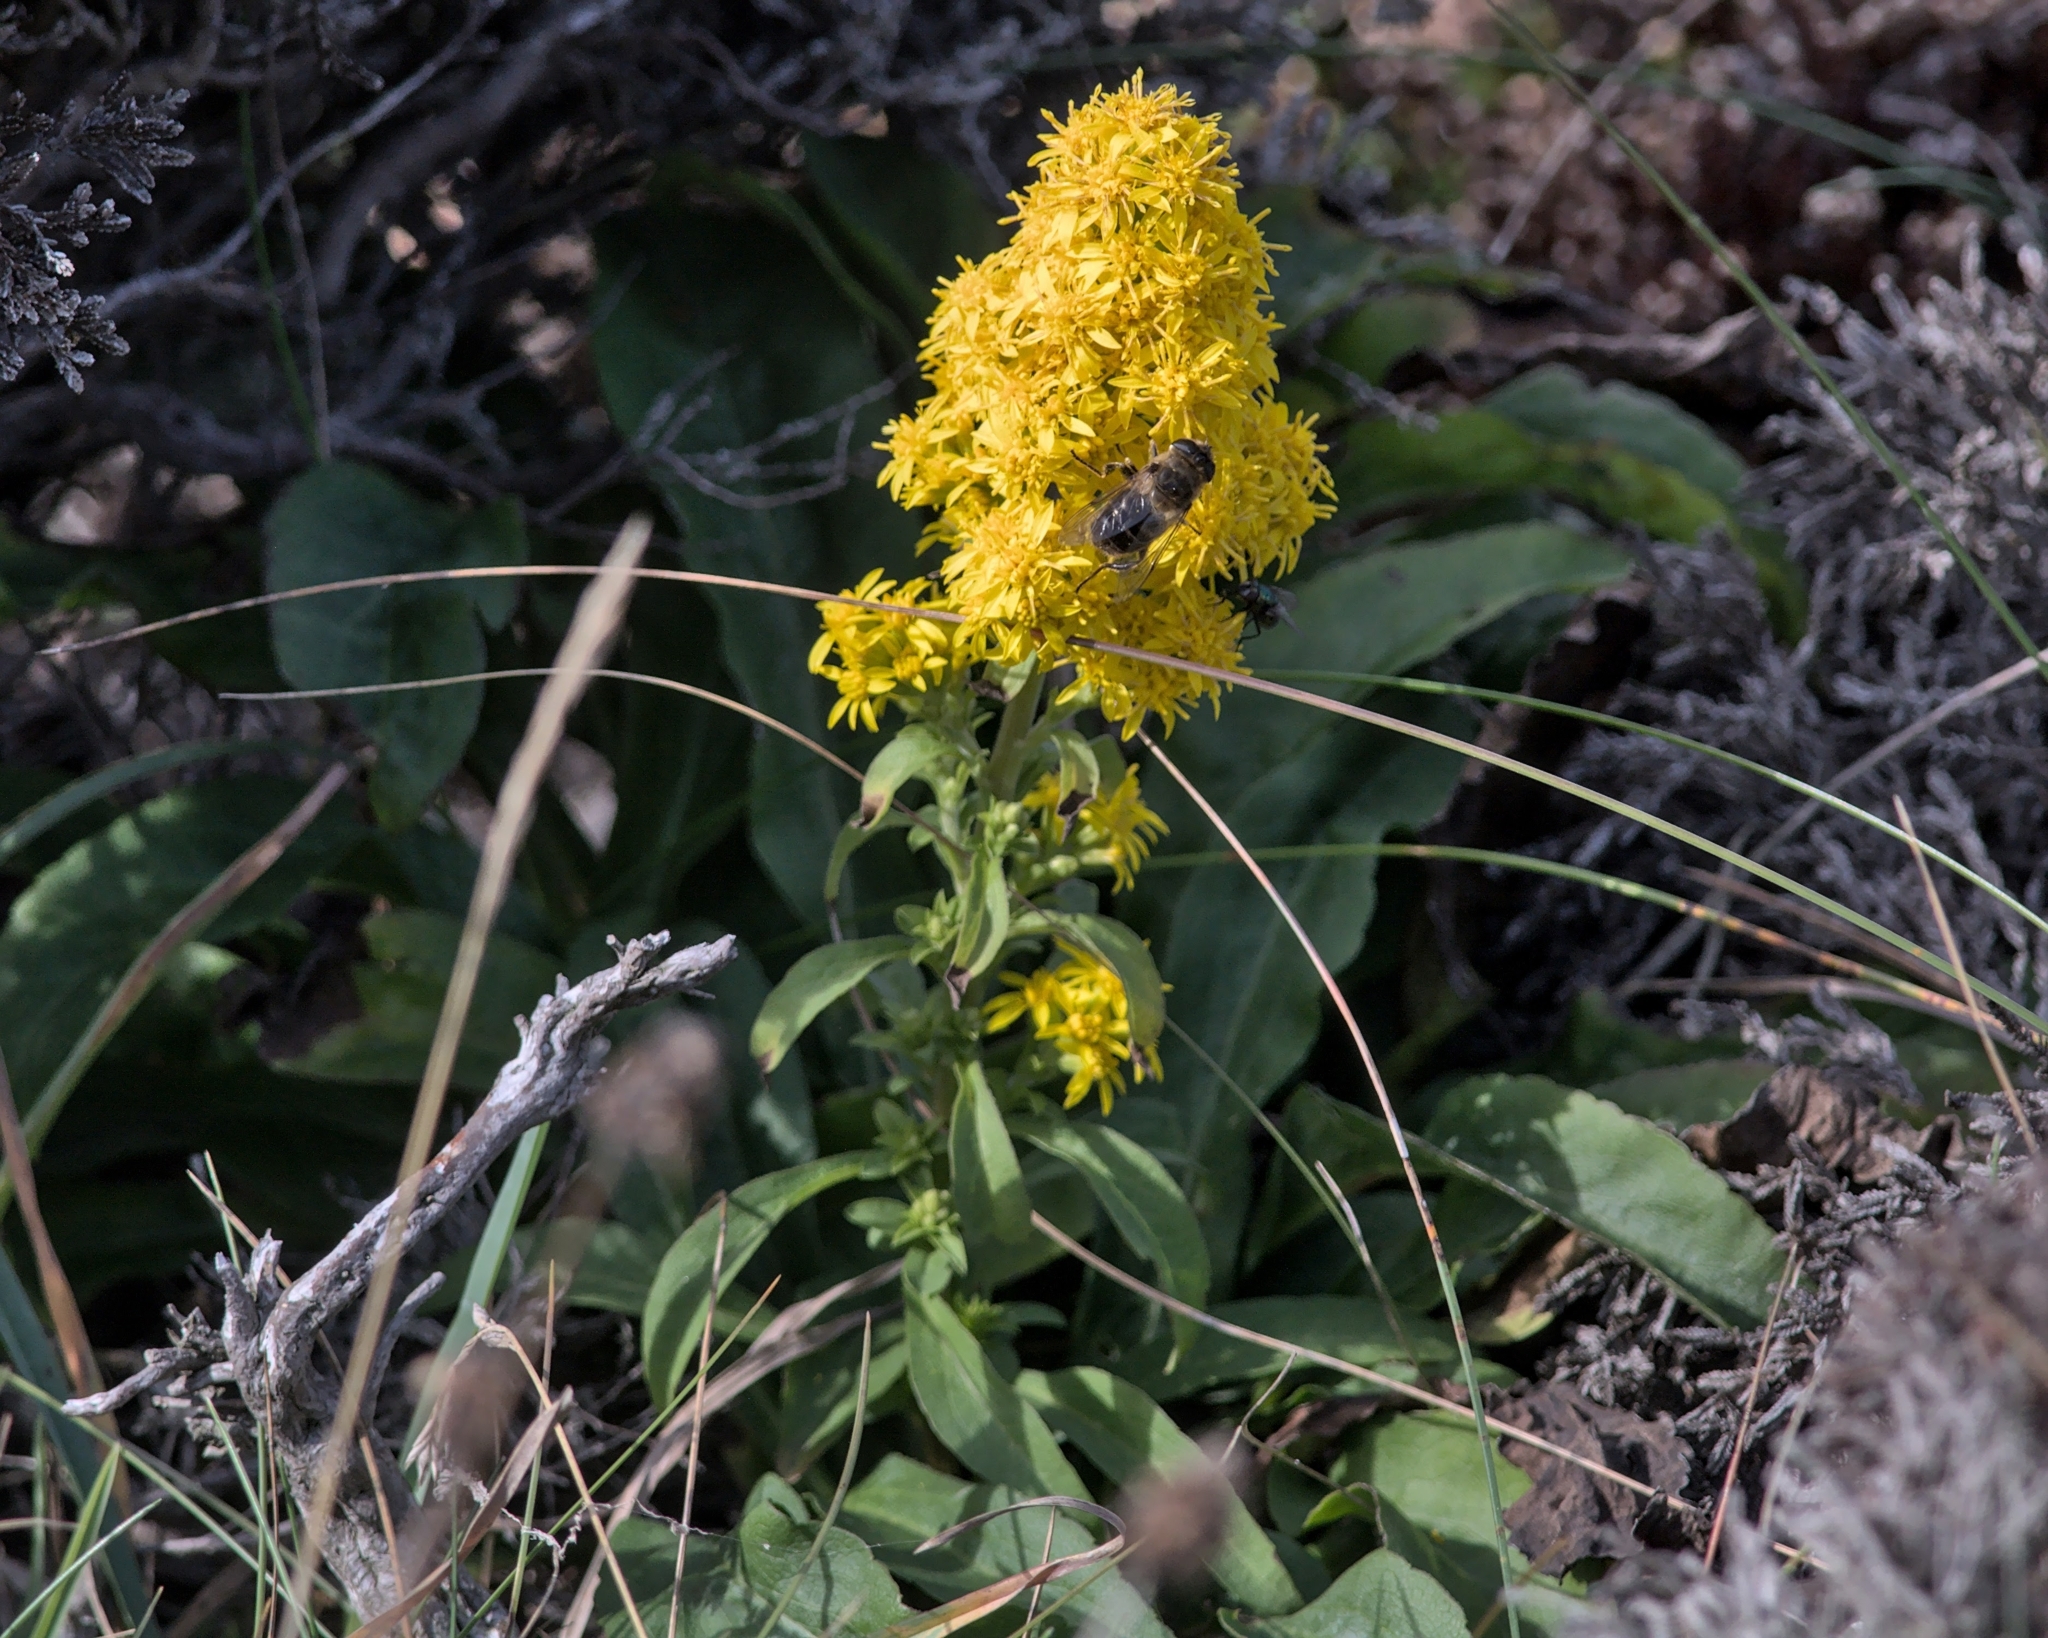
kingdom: Plantae
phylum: Tracheophyta
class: Magnoliopsida
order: Asterales
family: Asteraceae
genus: Solidago
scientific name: Solidago virgaurea
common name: Goldenrod
